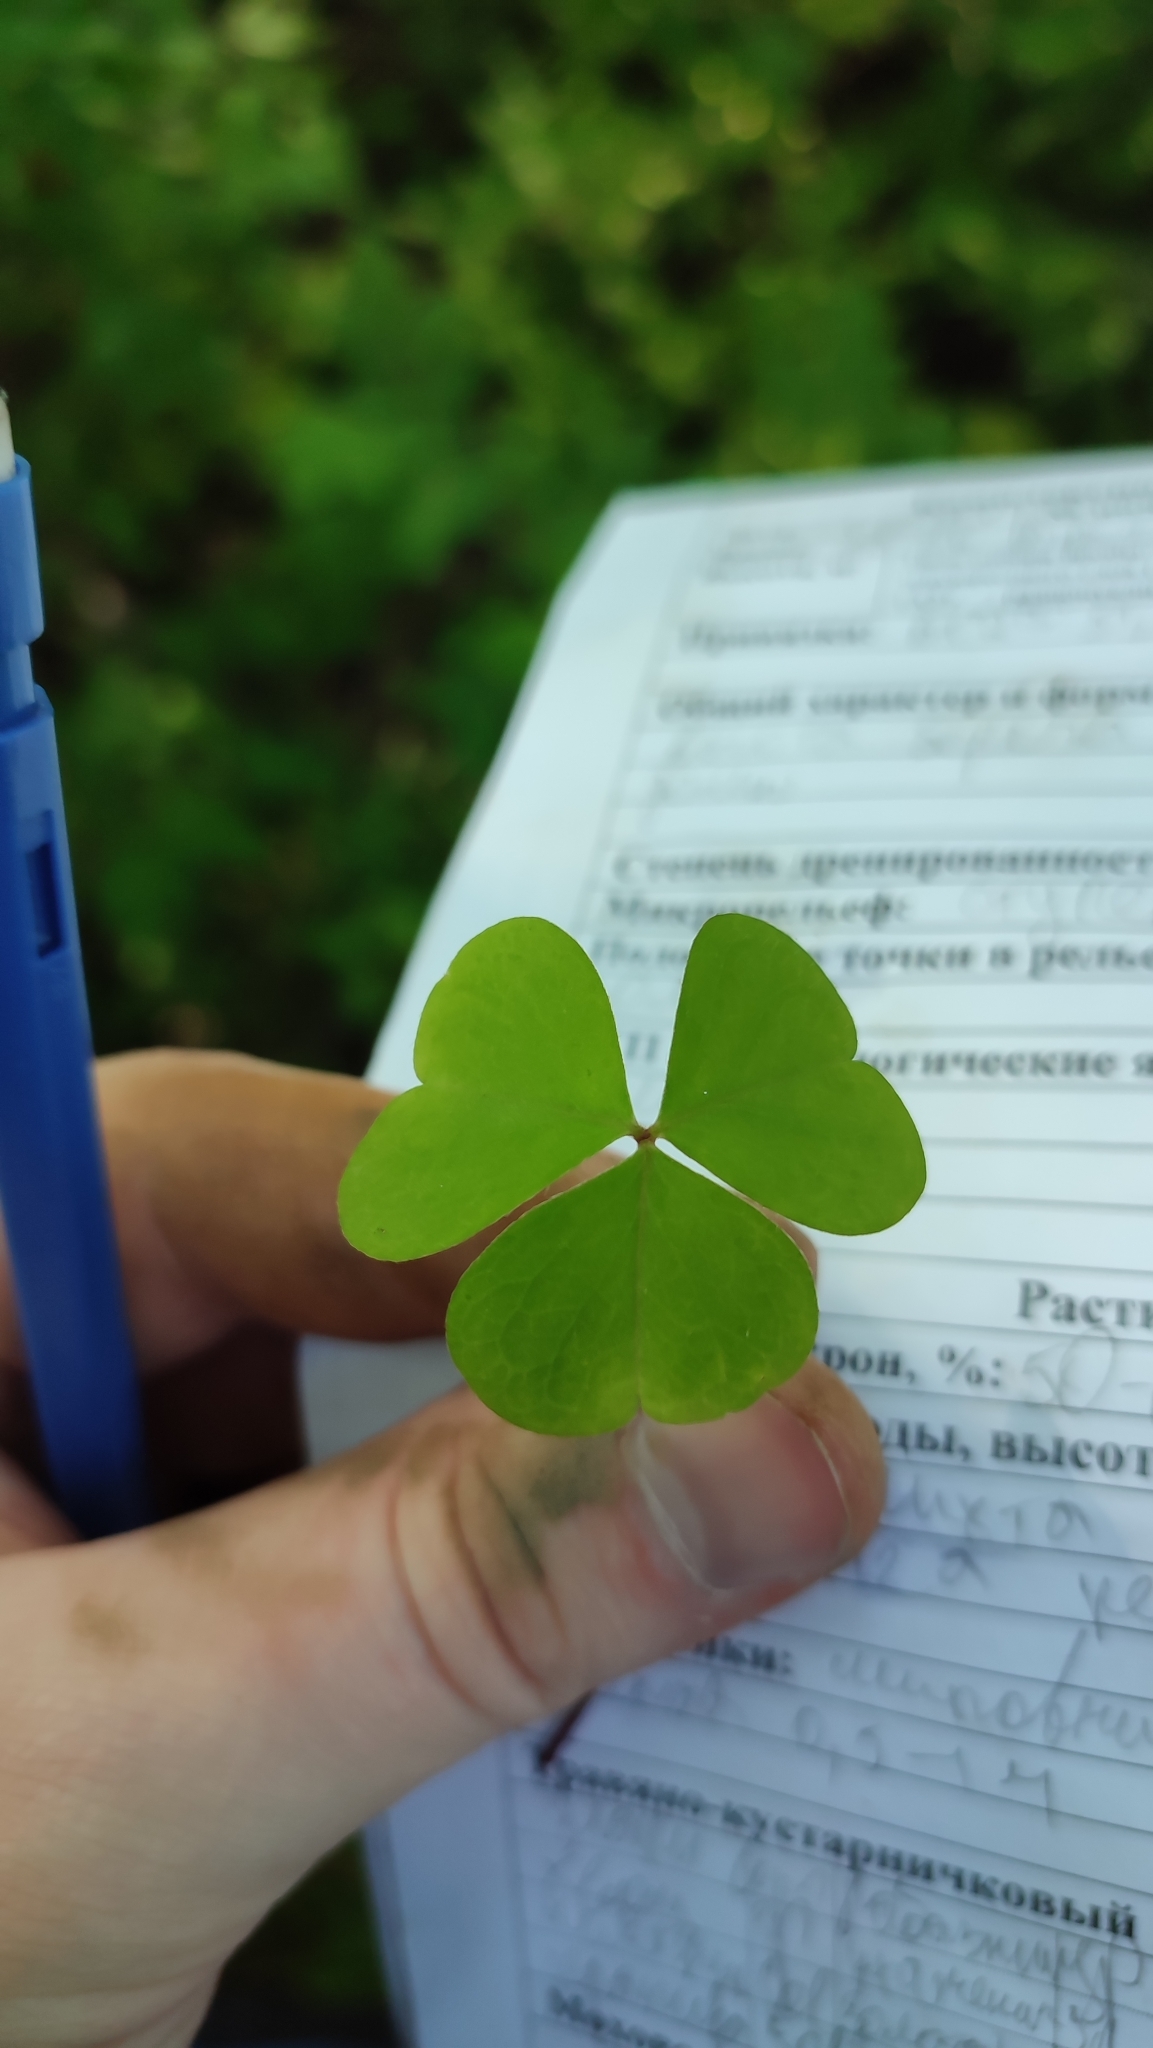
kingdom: Plantae
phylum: Tracheophyta
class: Magnoliopsida
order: Oxalidales
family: Oxalidaceae
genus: Oxalis
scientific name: Oxalis acetosella
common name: Wood-sorrel
